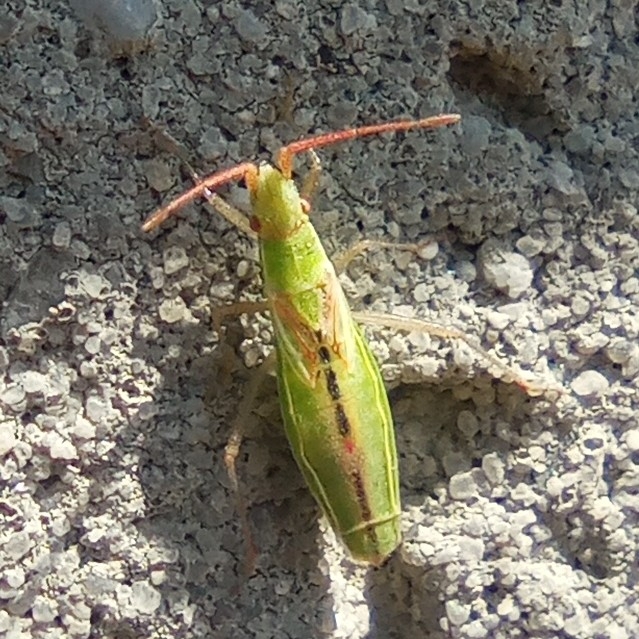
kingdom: Animalia
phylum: Arthropoda
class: Insecta
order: Hemiptera
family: Rhopalidae
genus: Myrmus
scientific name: Myrmus miriformis
